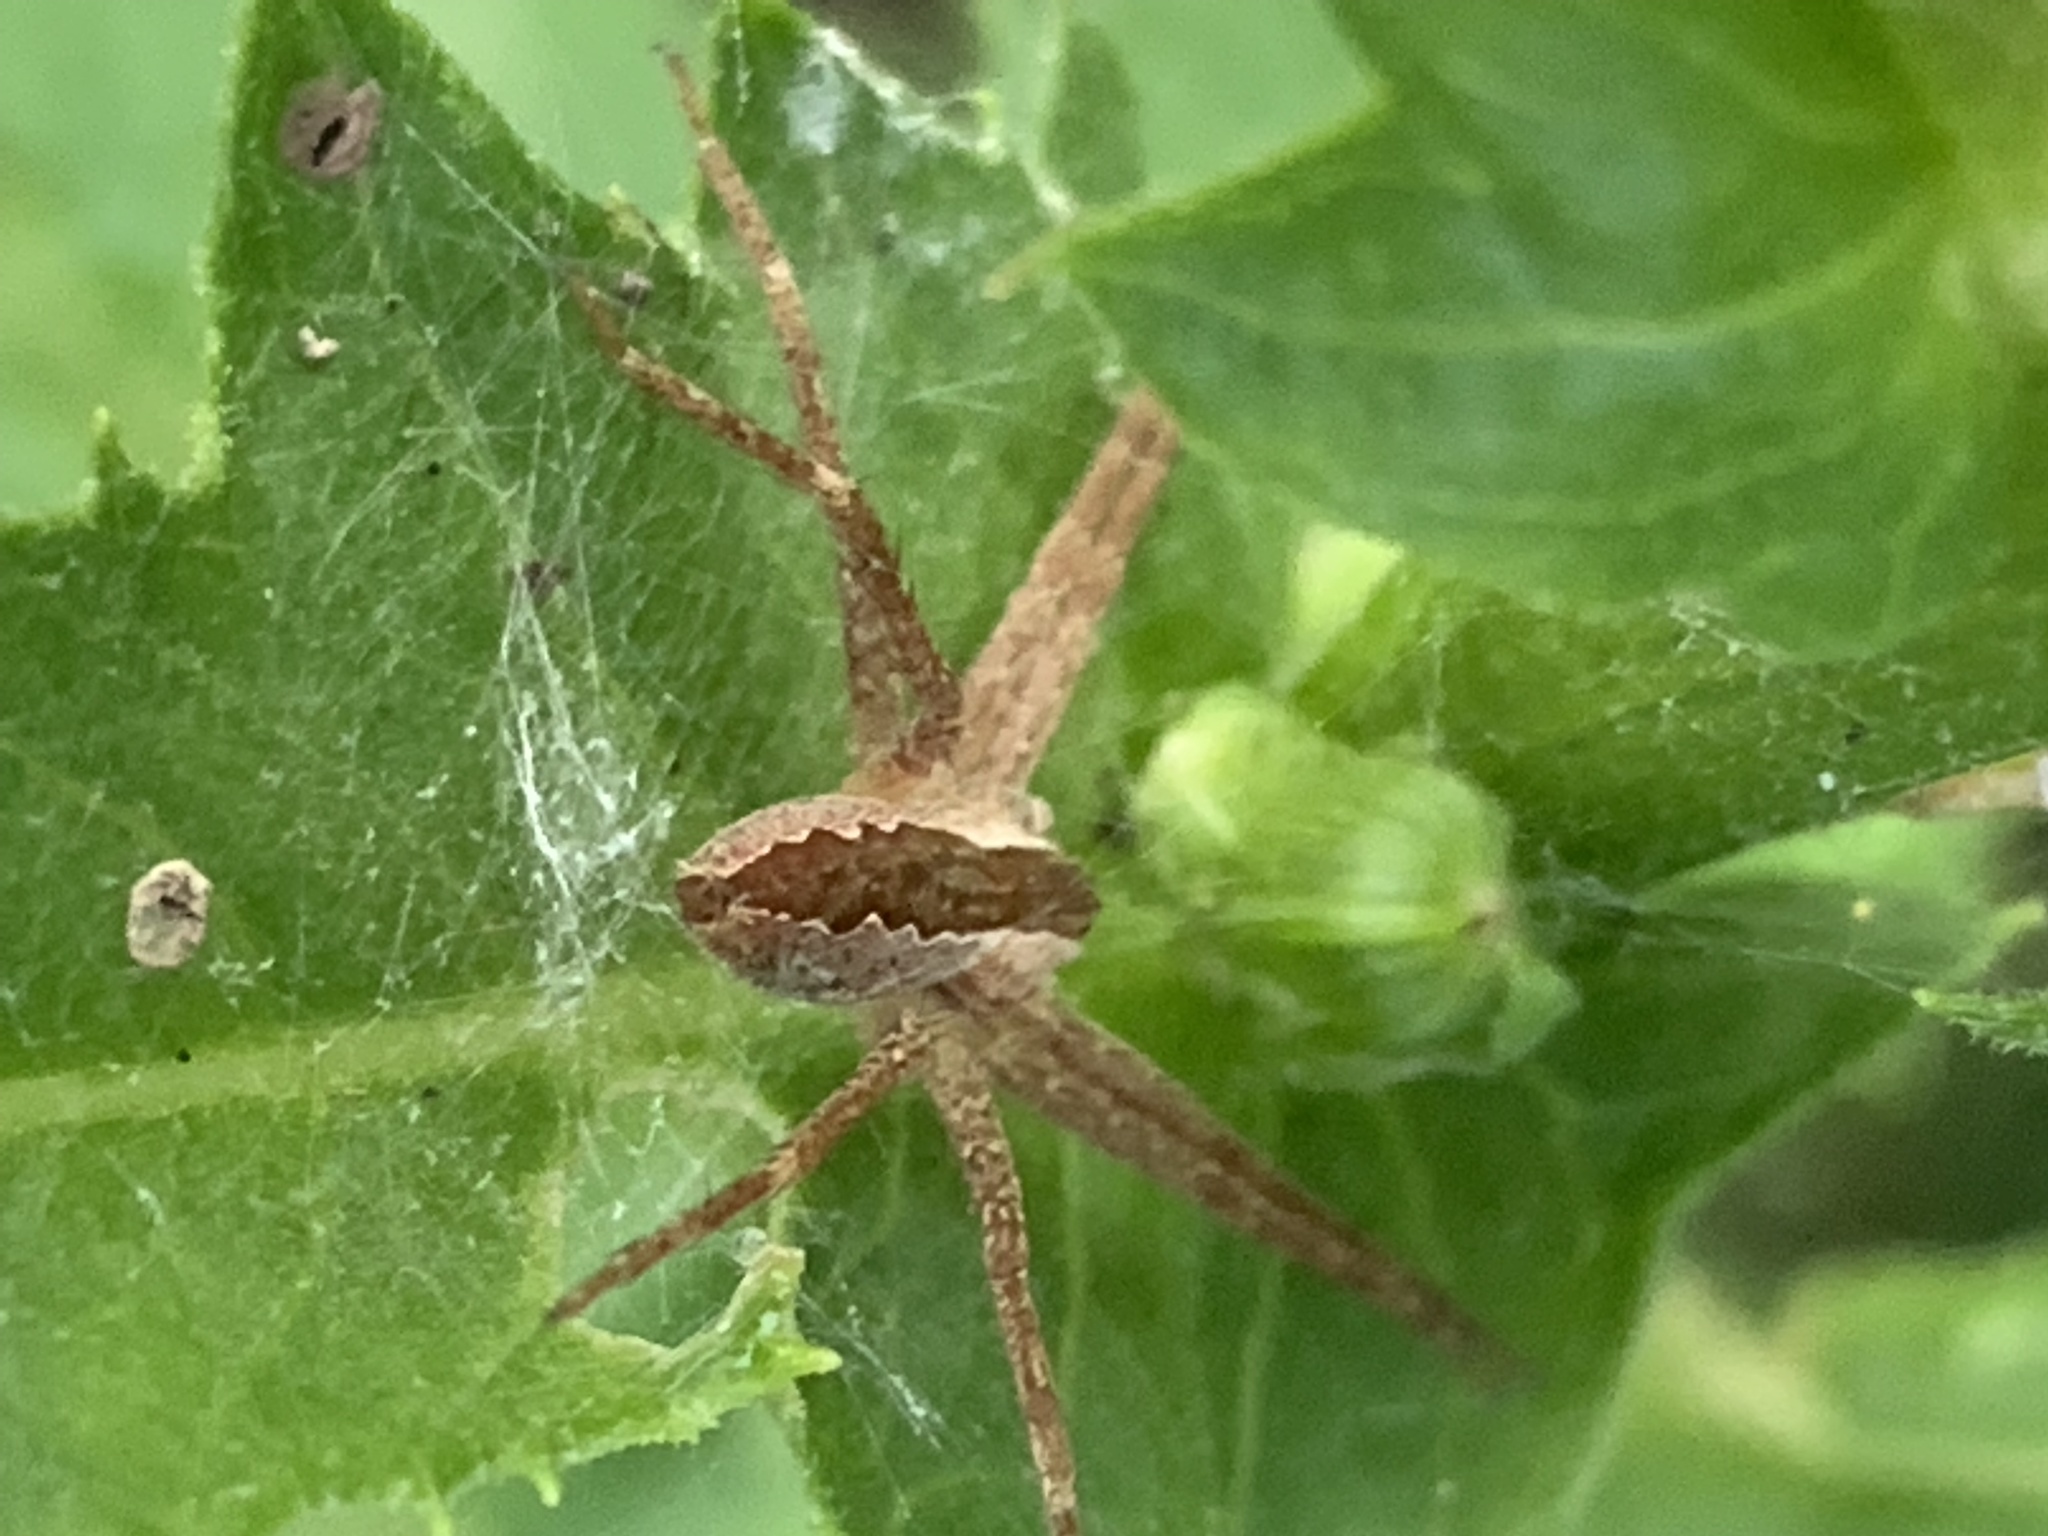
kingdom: Animalia
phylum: Arthropoda
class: Arachnida
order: Araneae
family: Pisauridae
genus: Pisaurina
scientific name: Pisaurina mira
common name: American nursery web spider
